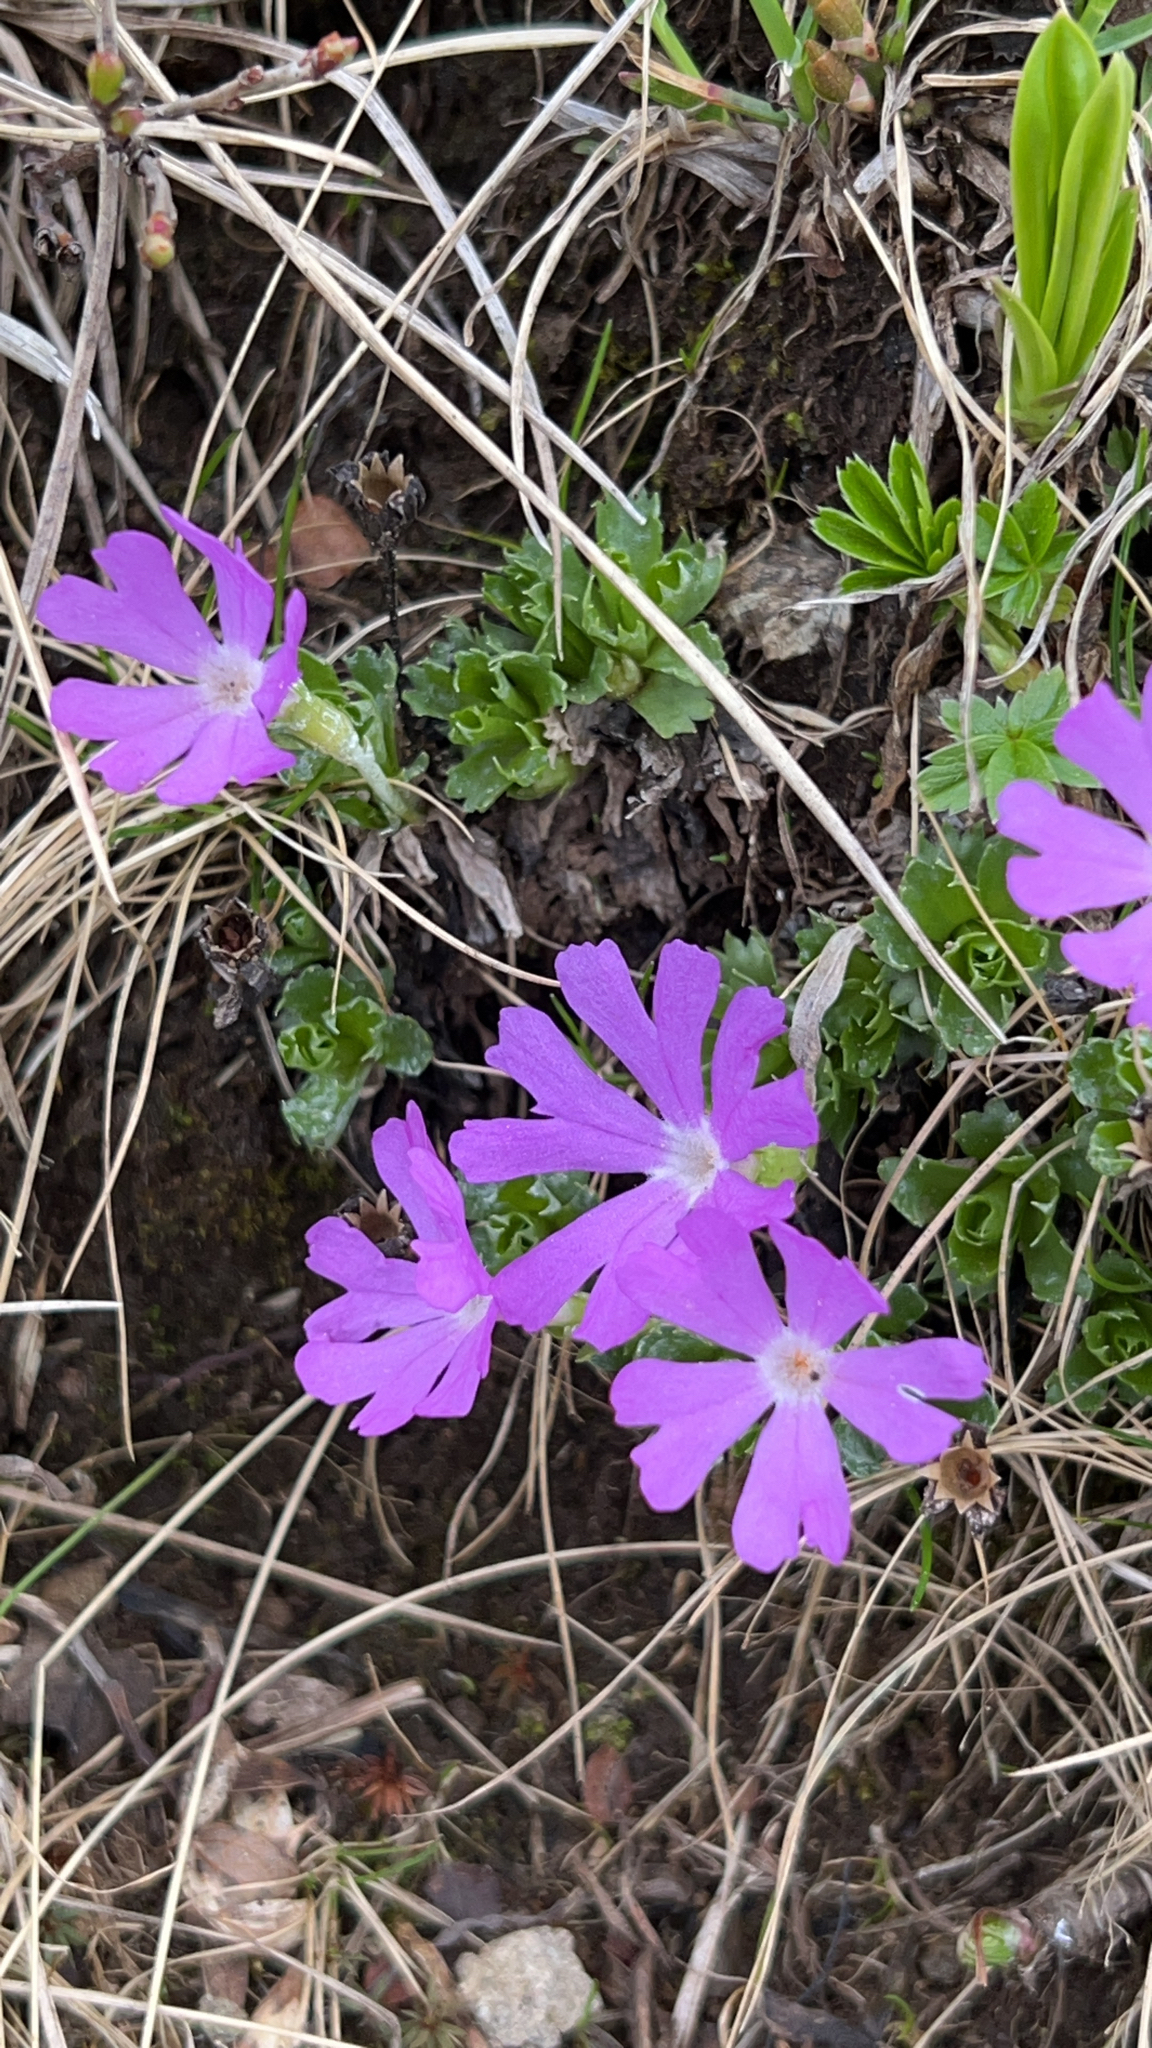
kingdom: Plantae
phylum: Tracheophyta
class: Magnoliopsida
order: Ericales
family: Primulaceae
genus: Primula
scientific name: Primula minima
